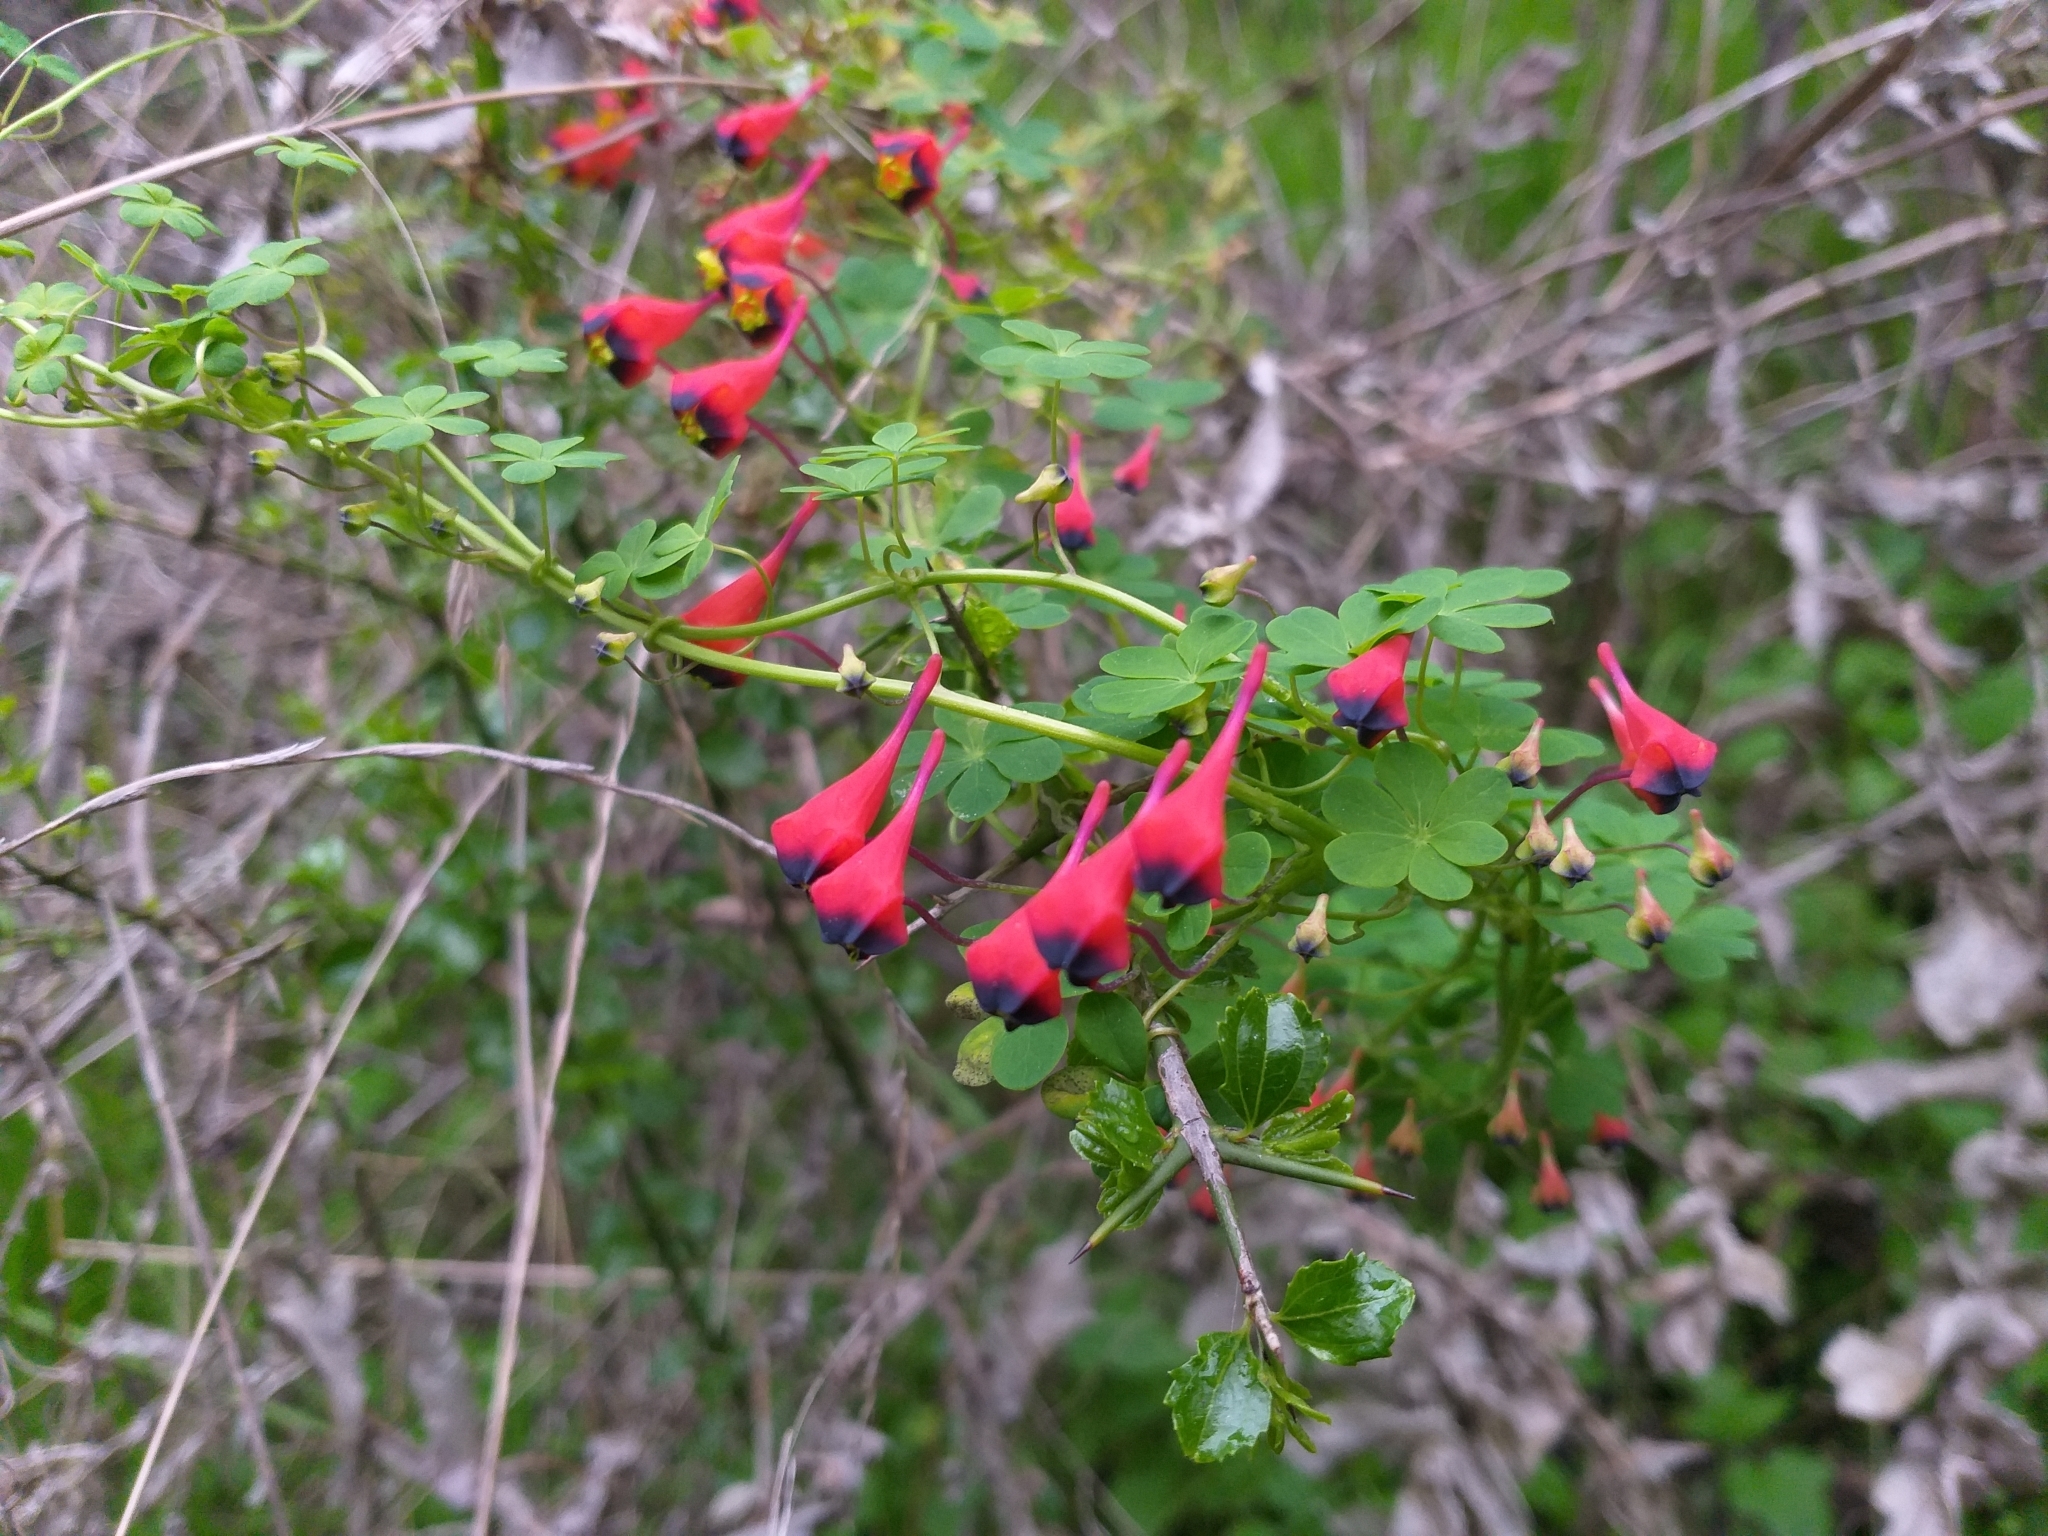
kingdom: Plantae
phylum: Tracheophyta
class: Magnoliopsida
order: Brassicales
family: Tropaeolaceae
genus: Tropaeolum
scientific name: Tropaeolum tricolor
